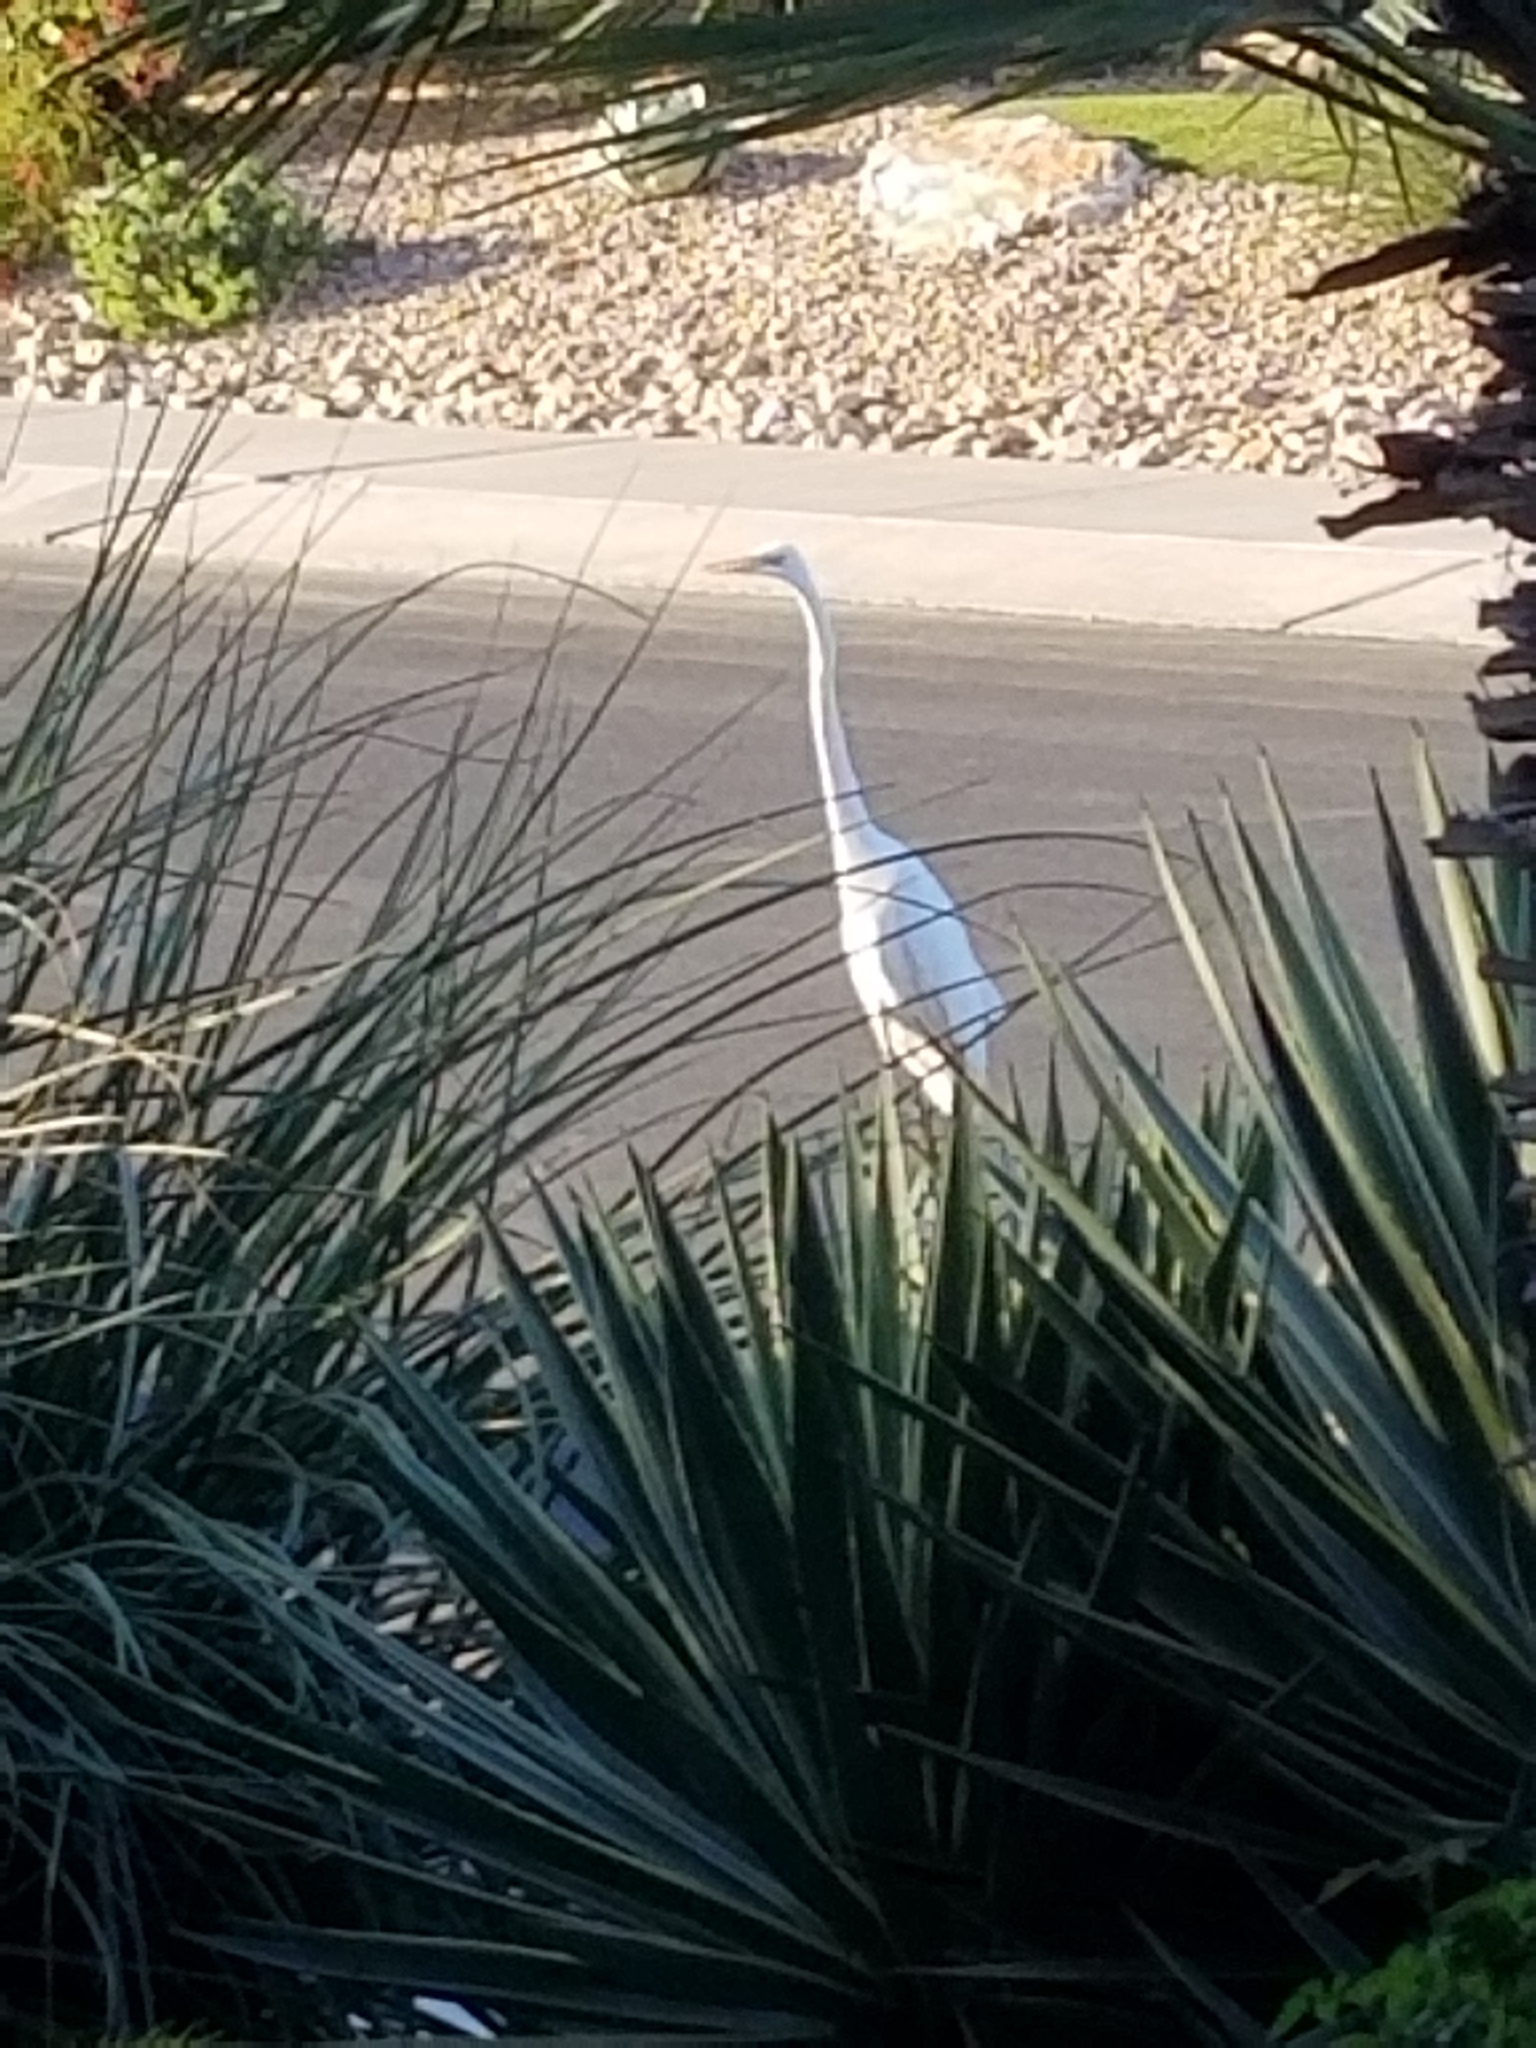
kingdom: Animalia
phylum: Chordata
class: Aves
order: Pelecaniformes
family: Ardeidae
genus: Ardea
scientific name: Ardea alba
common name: Great egret
